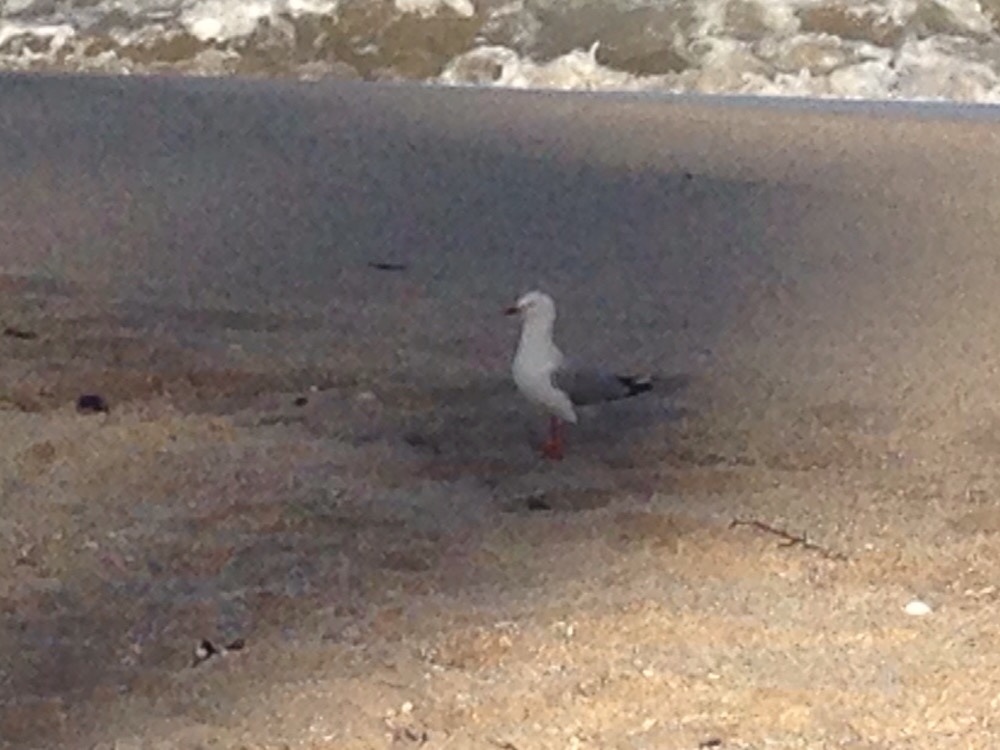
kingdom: Animalia
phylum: Chordata
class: Aves
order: Charadriiformes
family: Laridae
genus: Chroicocephalus
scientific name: Chroicocephalus novaehollandiae
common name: Silver gull
